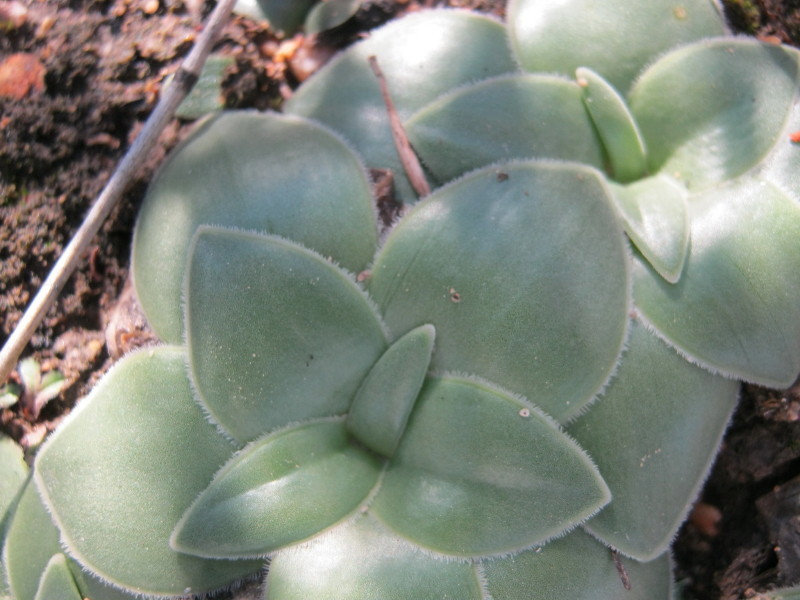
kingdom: Plantae
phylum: Tracheophyta
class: Liliopsida
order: Asparagales
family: Asparagaceae
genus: Drimia
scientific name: Drimia ciliata
